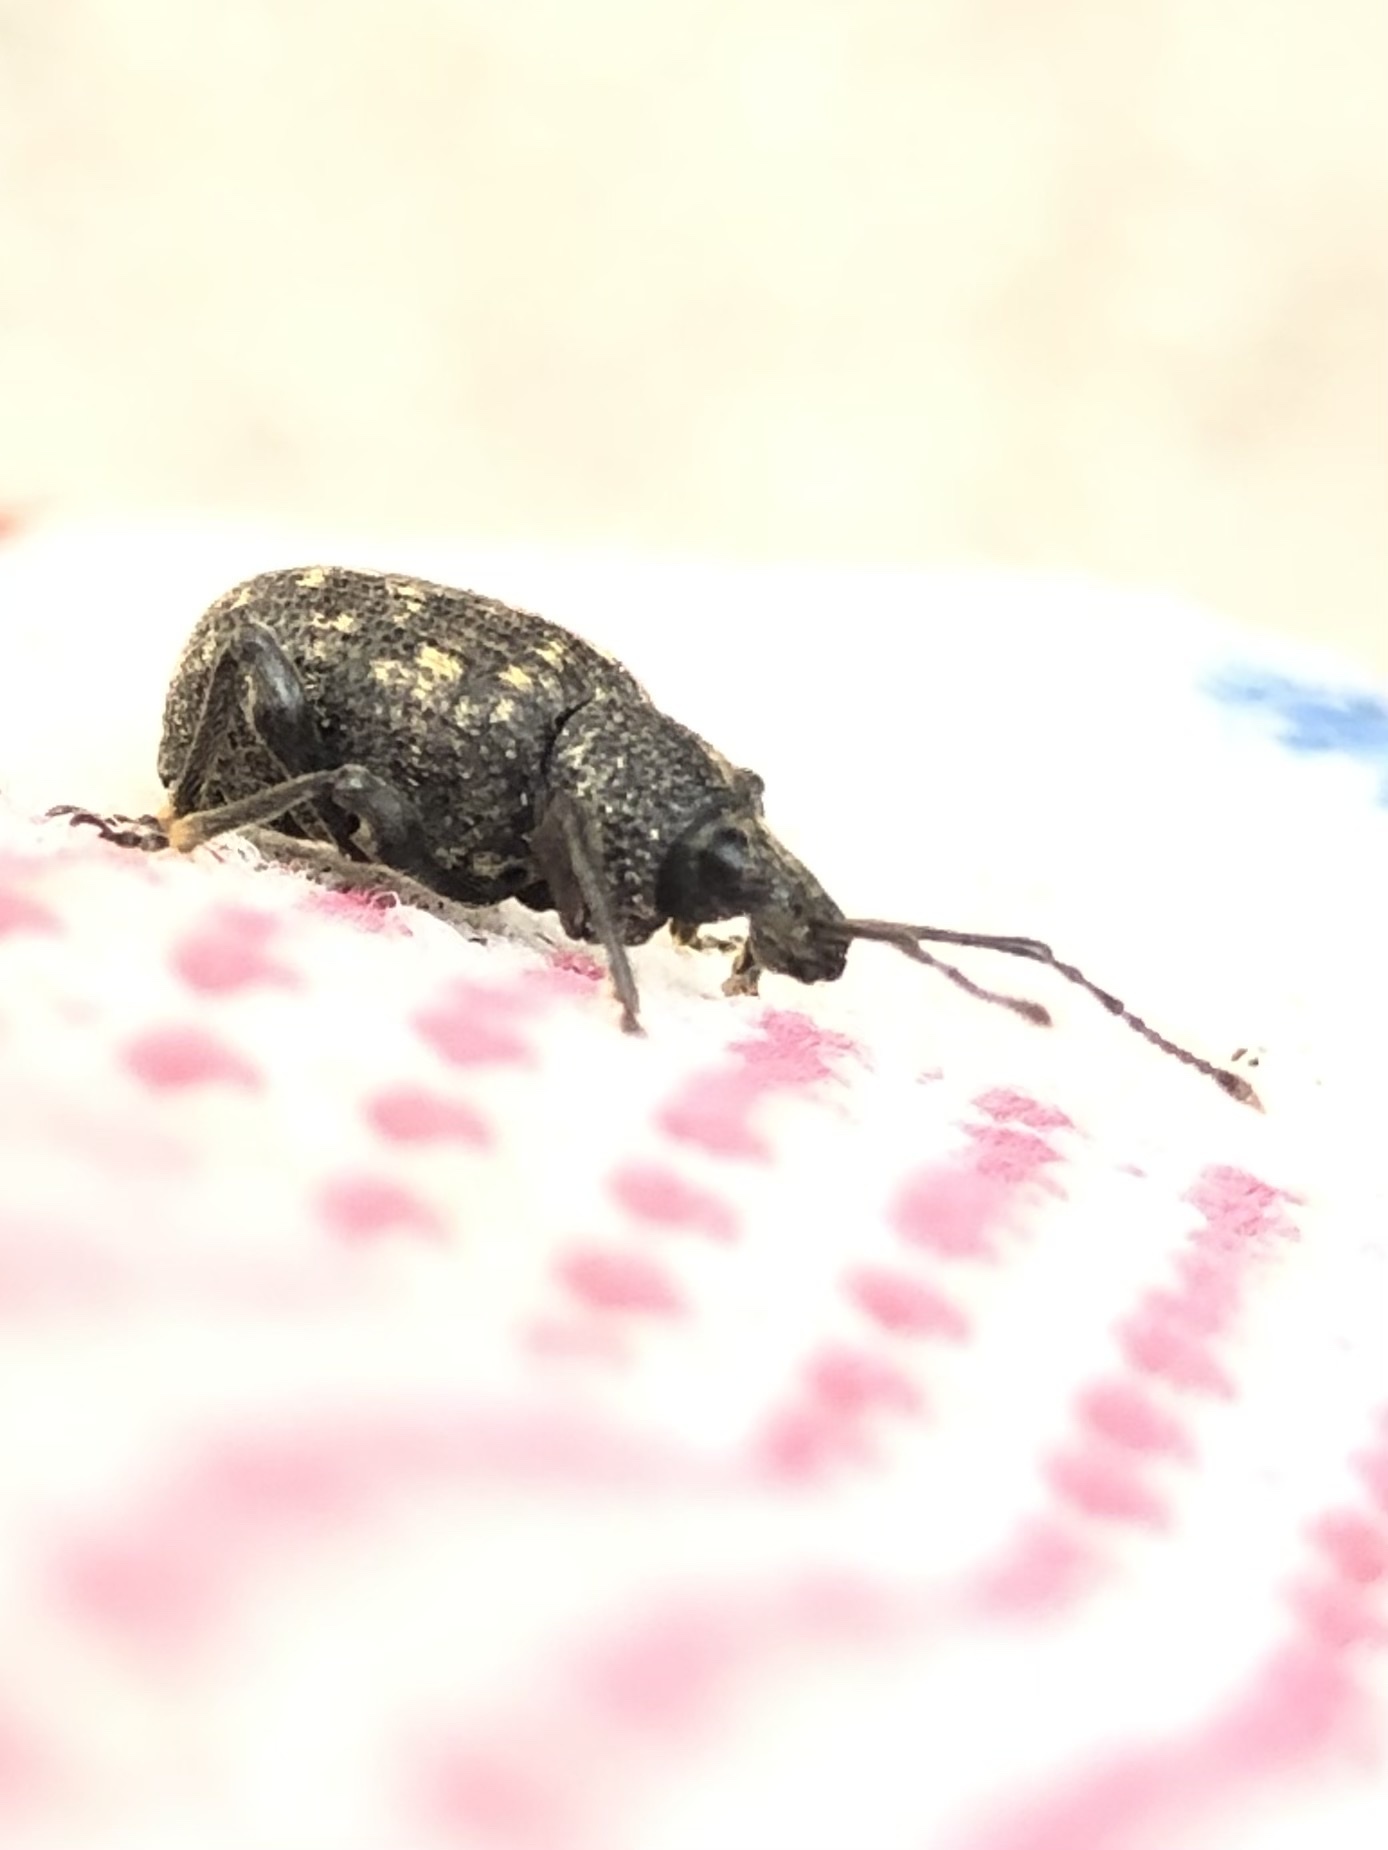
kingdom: Animalia
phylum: Arthropoda
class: Insecta
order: Coleoptera
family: Curculionidae
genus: Otiorhynchus
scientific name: Otiorhynchus sulcatus
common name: Black vine weevil
